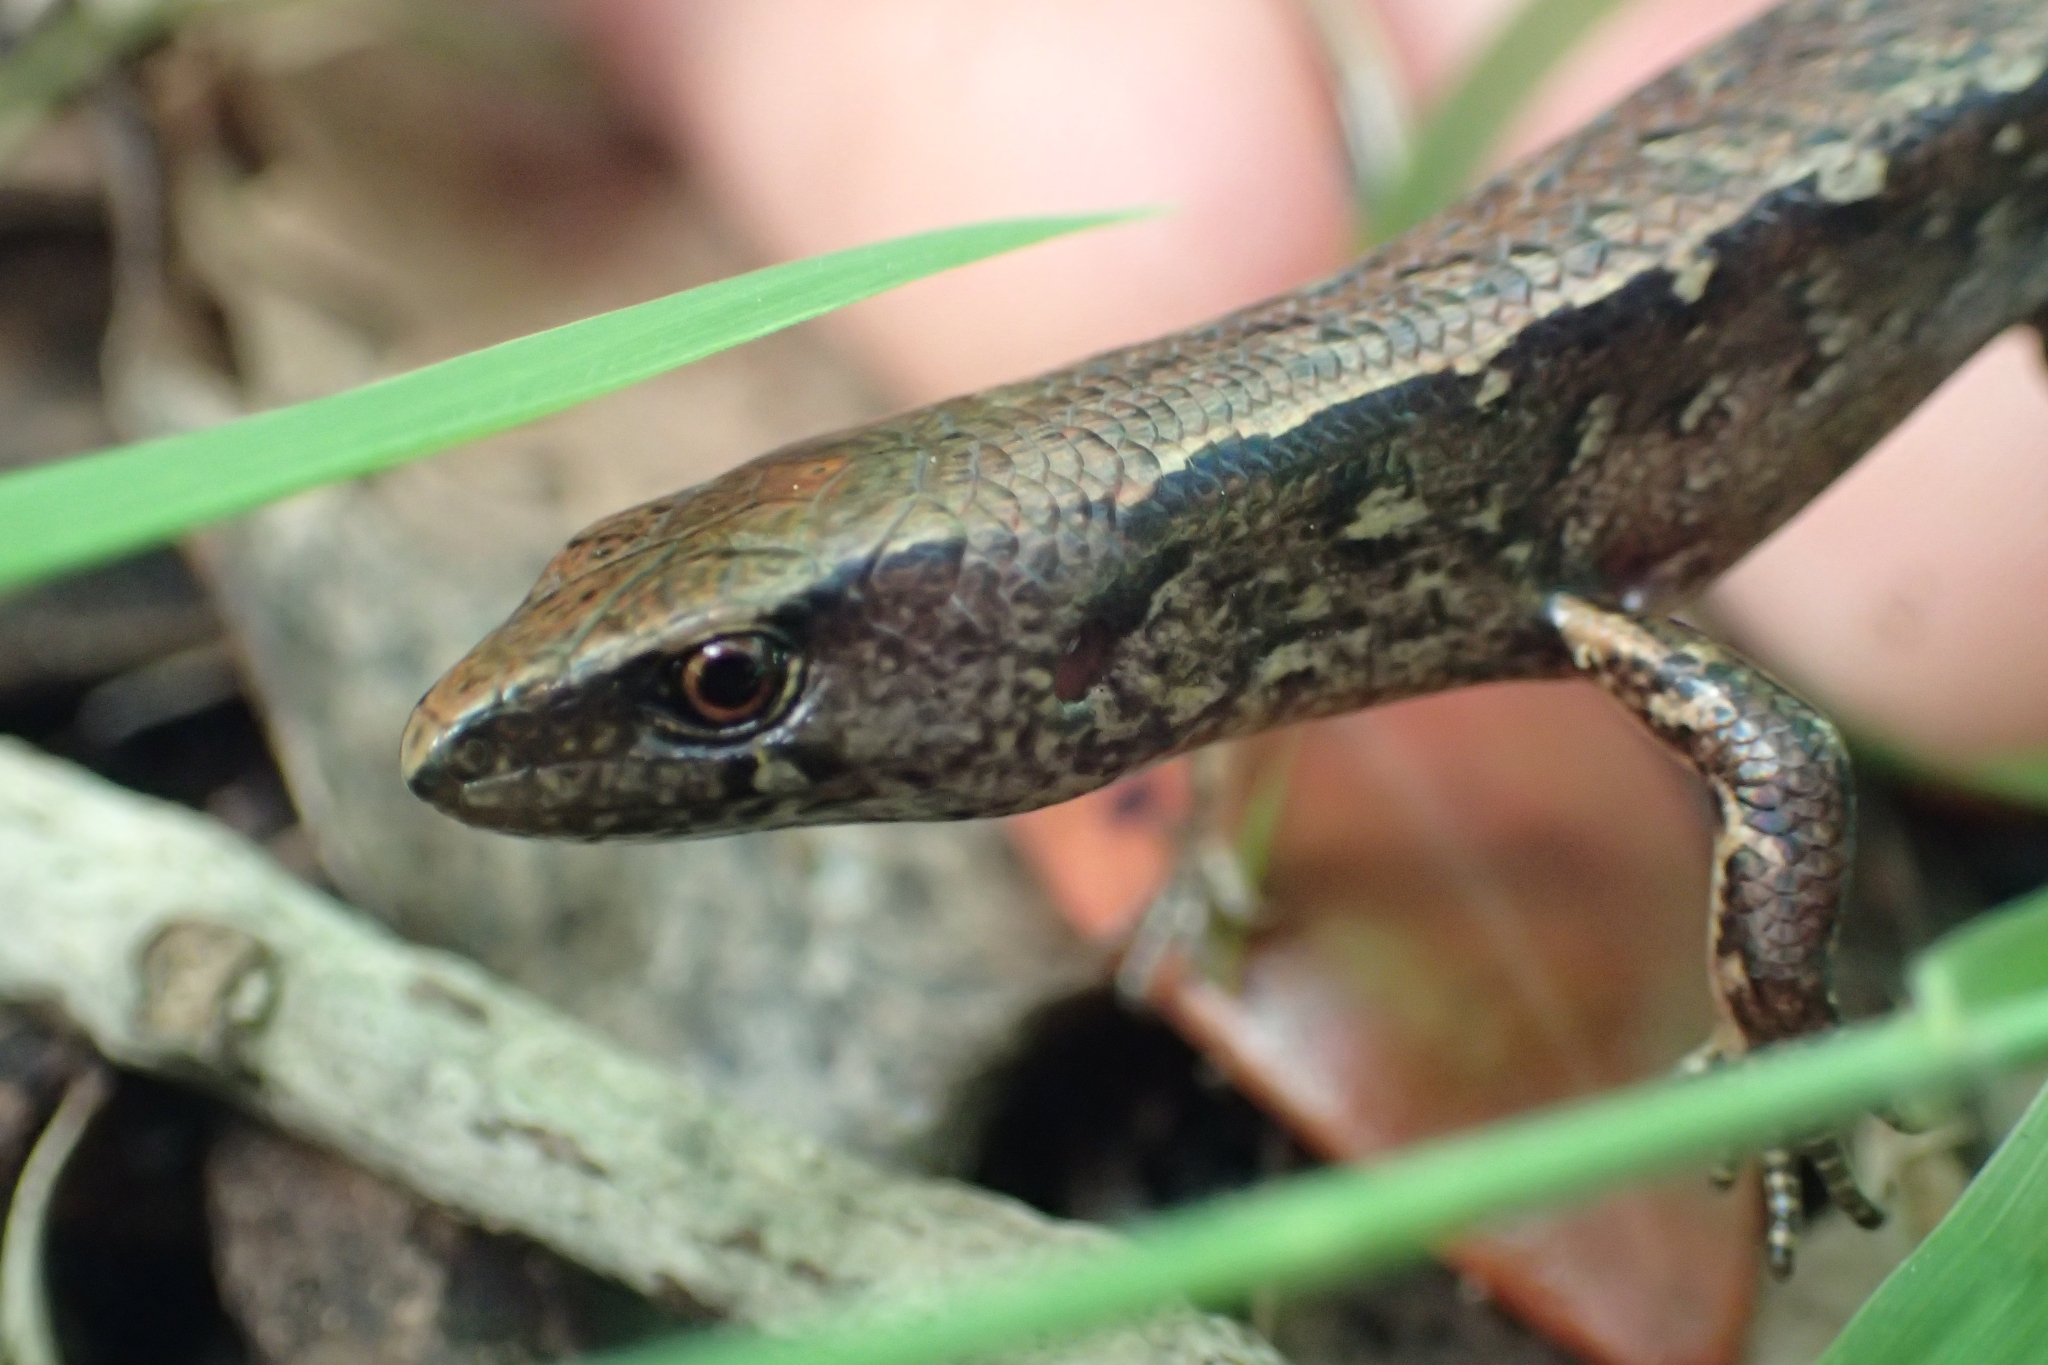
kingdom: Animalia
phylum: Chordata
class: Squamata
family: Scincidae
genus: Oligosoma
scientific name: Oligosoma ornatum
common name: Gray's ornate skink
